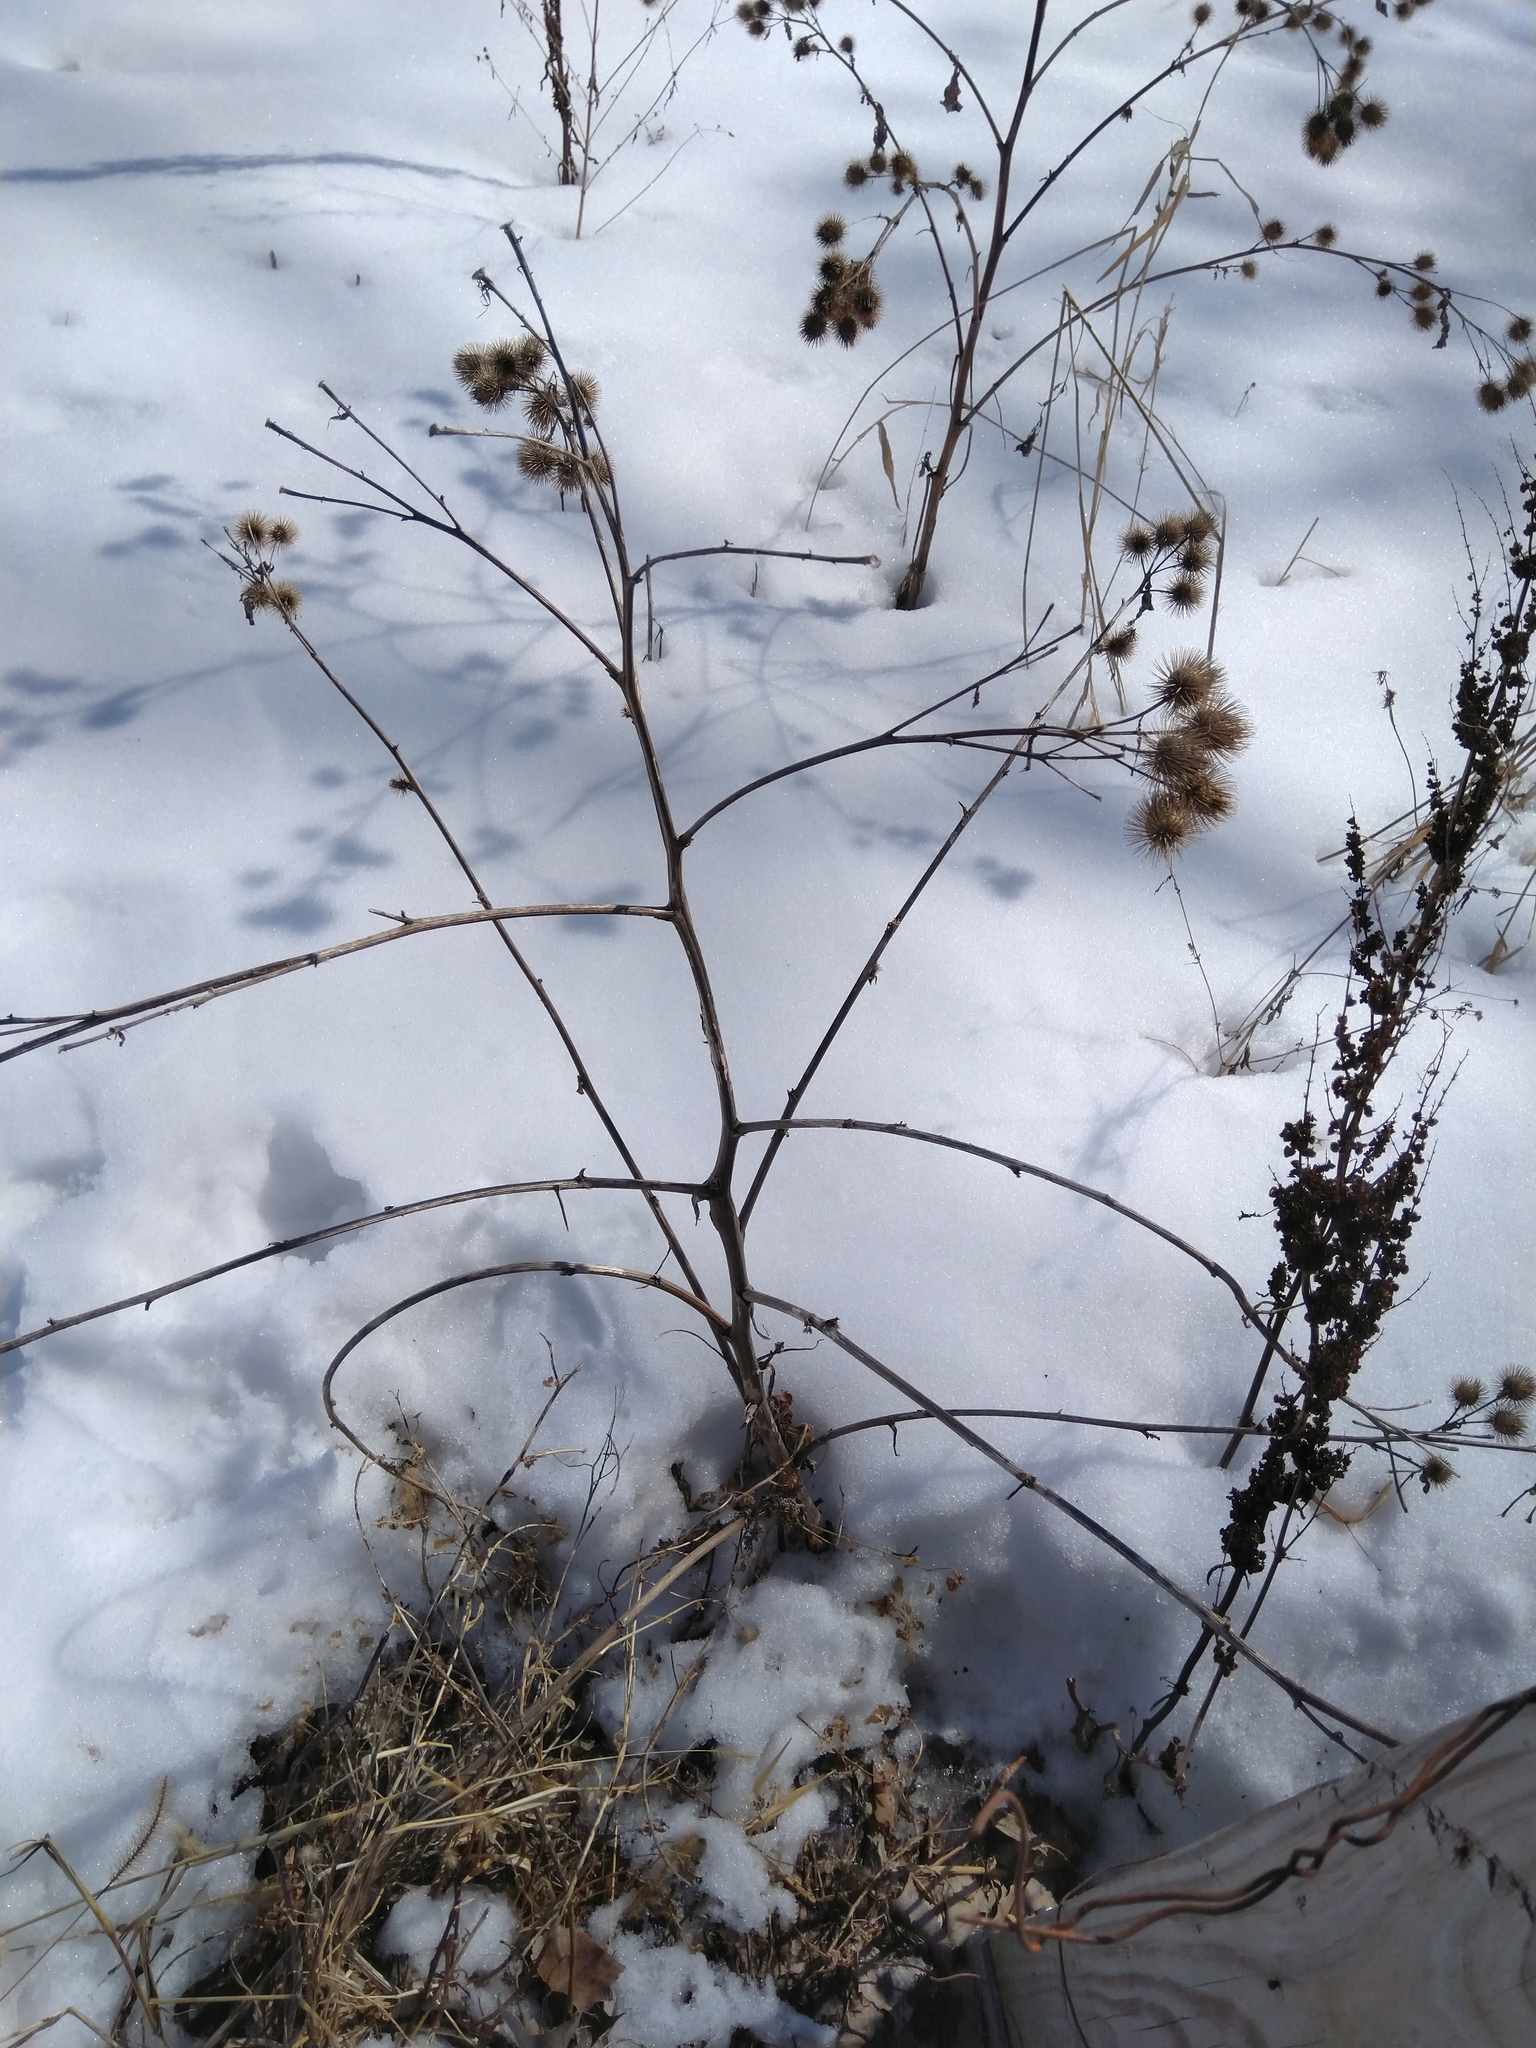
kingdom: Plantae
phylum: Tracheophyta
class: Magnoliopsida
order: Asterales
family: Asteraceae
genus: Arctium
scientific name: Arctium minus
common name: Lesser burdock
